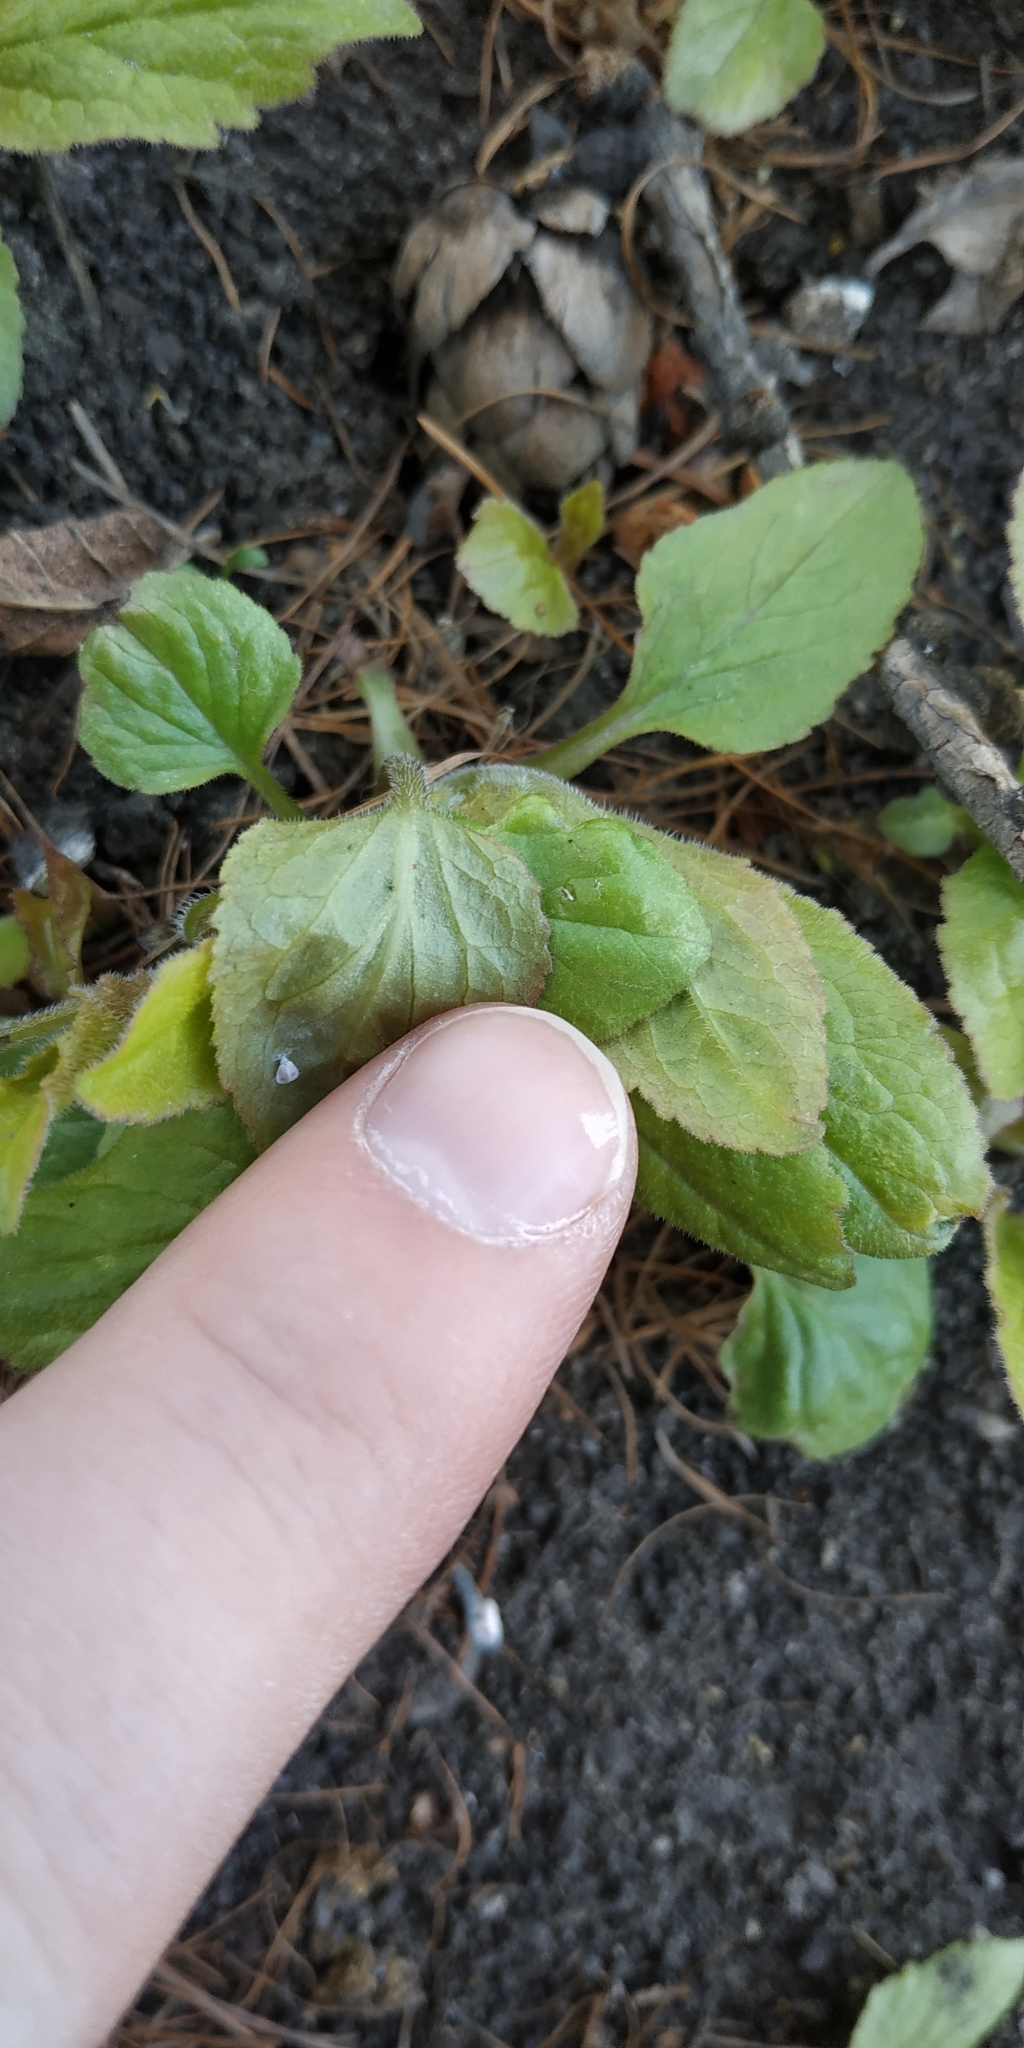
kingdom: Plantae
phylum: Tracheophyta
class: Magnoliopsida
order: Asterales
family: Campanulaceae
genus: Campanula
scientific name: Campanula rapunculoides
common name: Creeping bellflower
